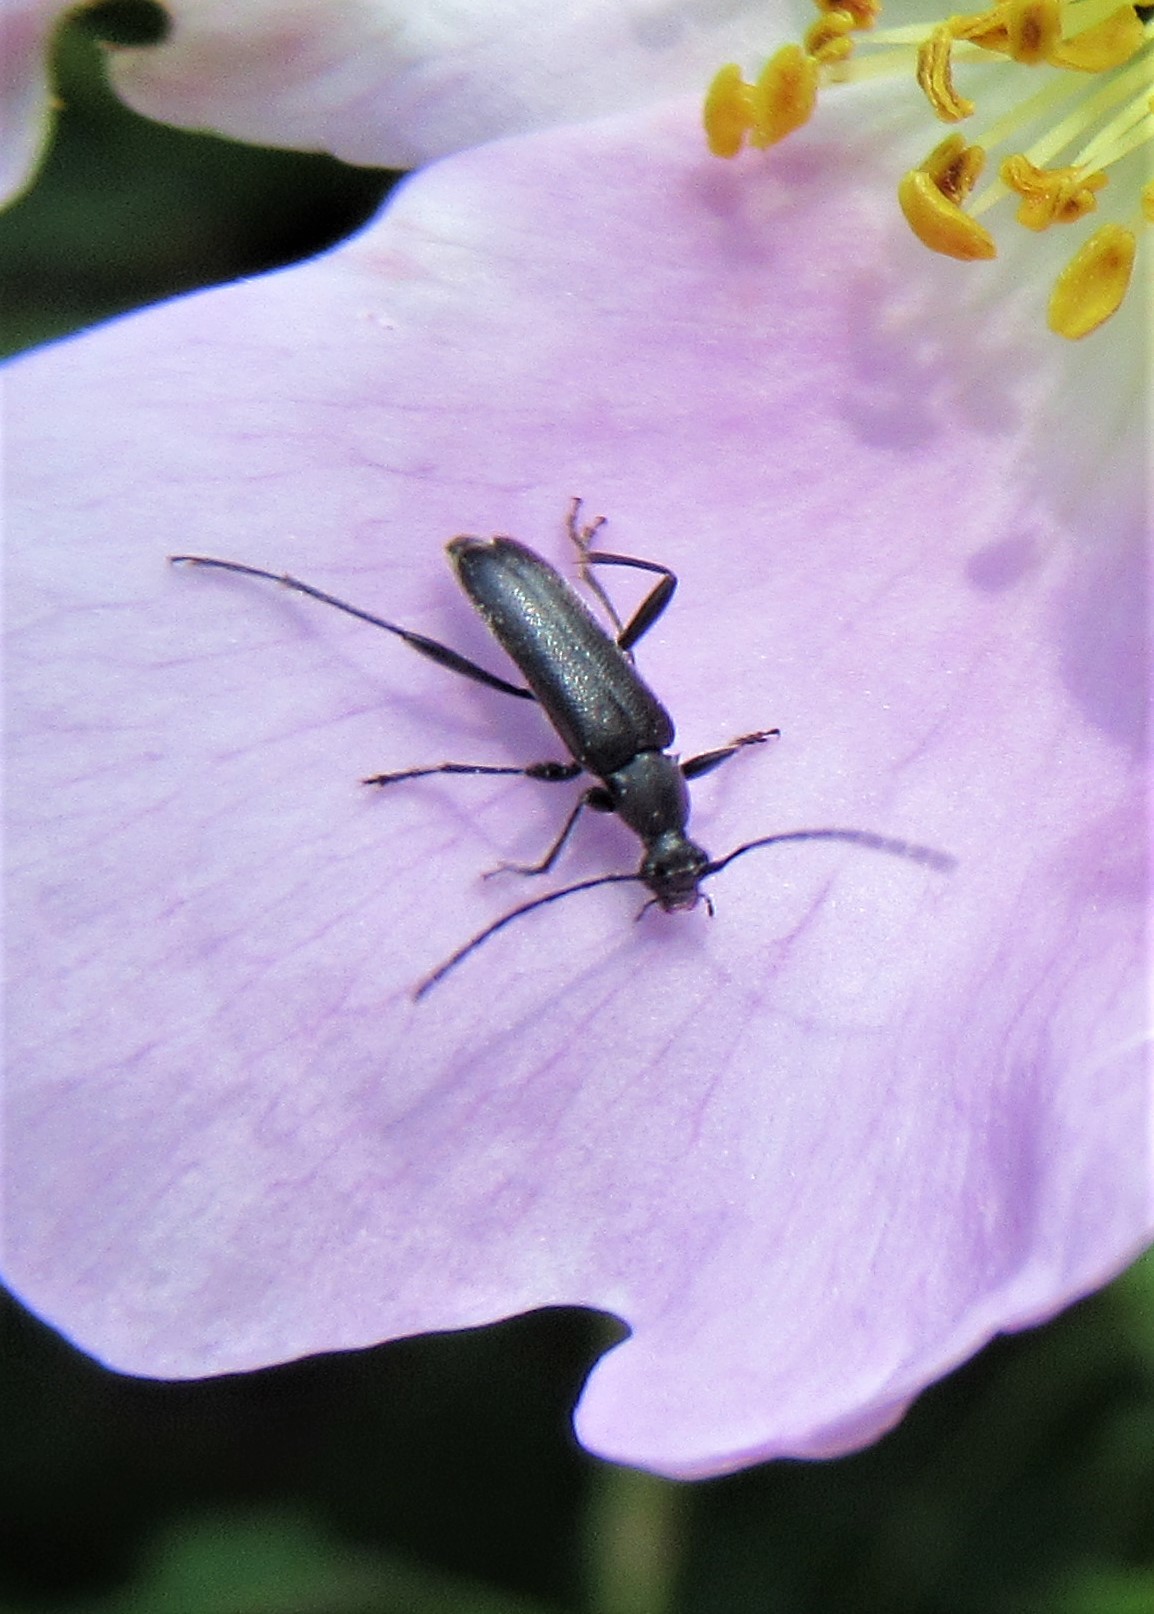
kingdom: Animalia
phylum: Arthropoda
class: Insecta
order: Coleoptera
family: Cerambycidae
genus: Grammoptera
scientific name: Grammoptera subargentata
